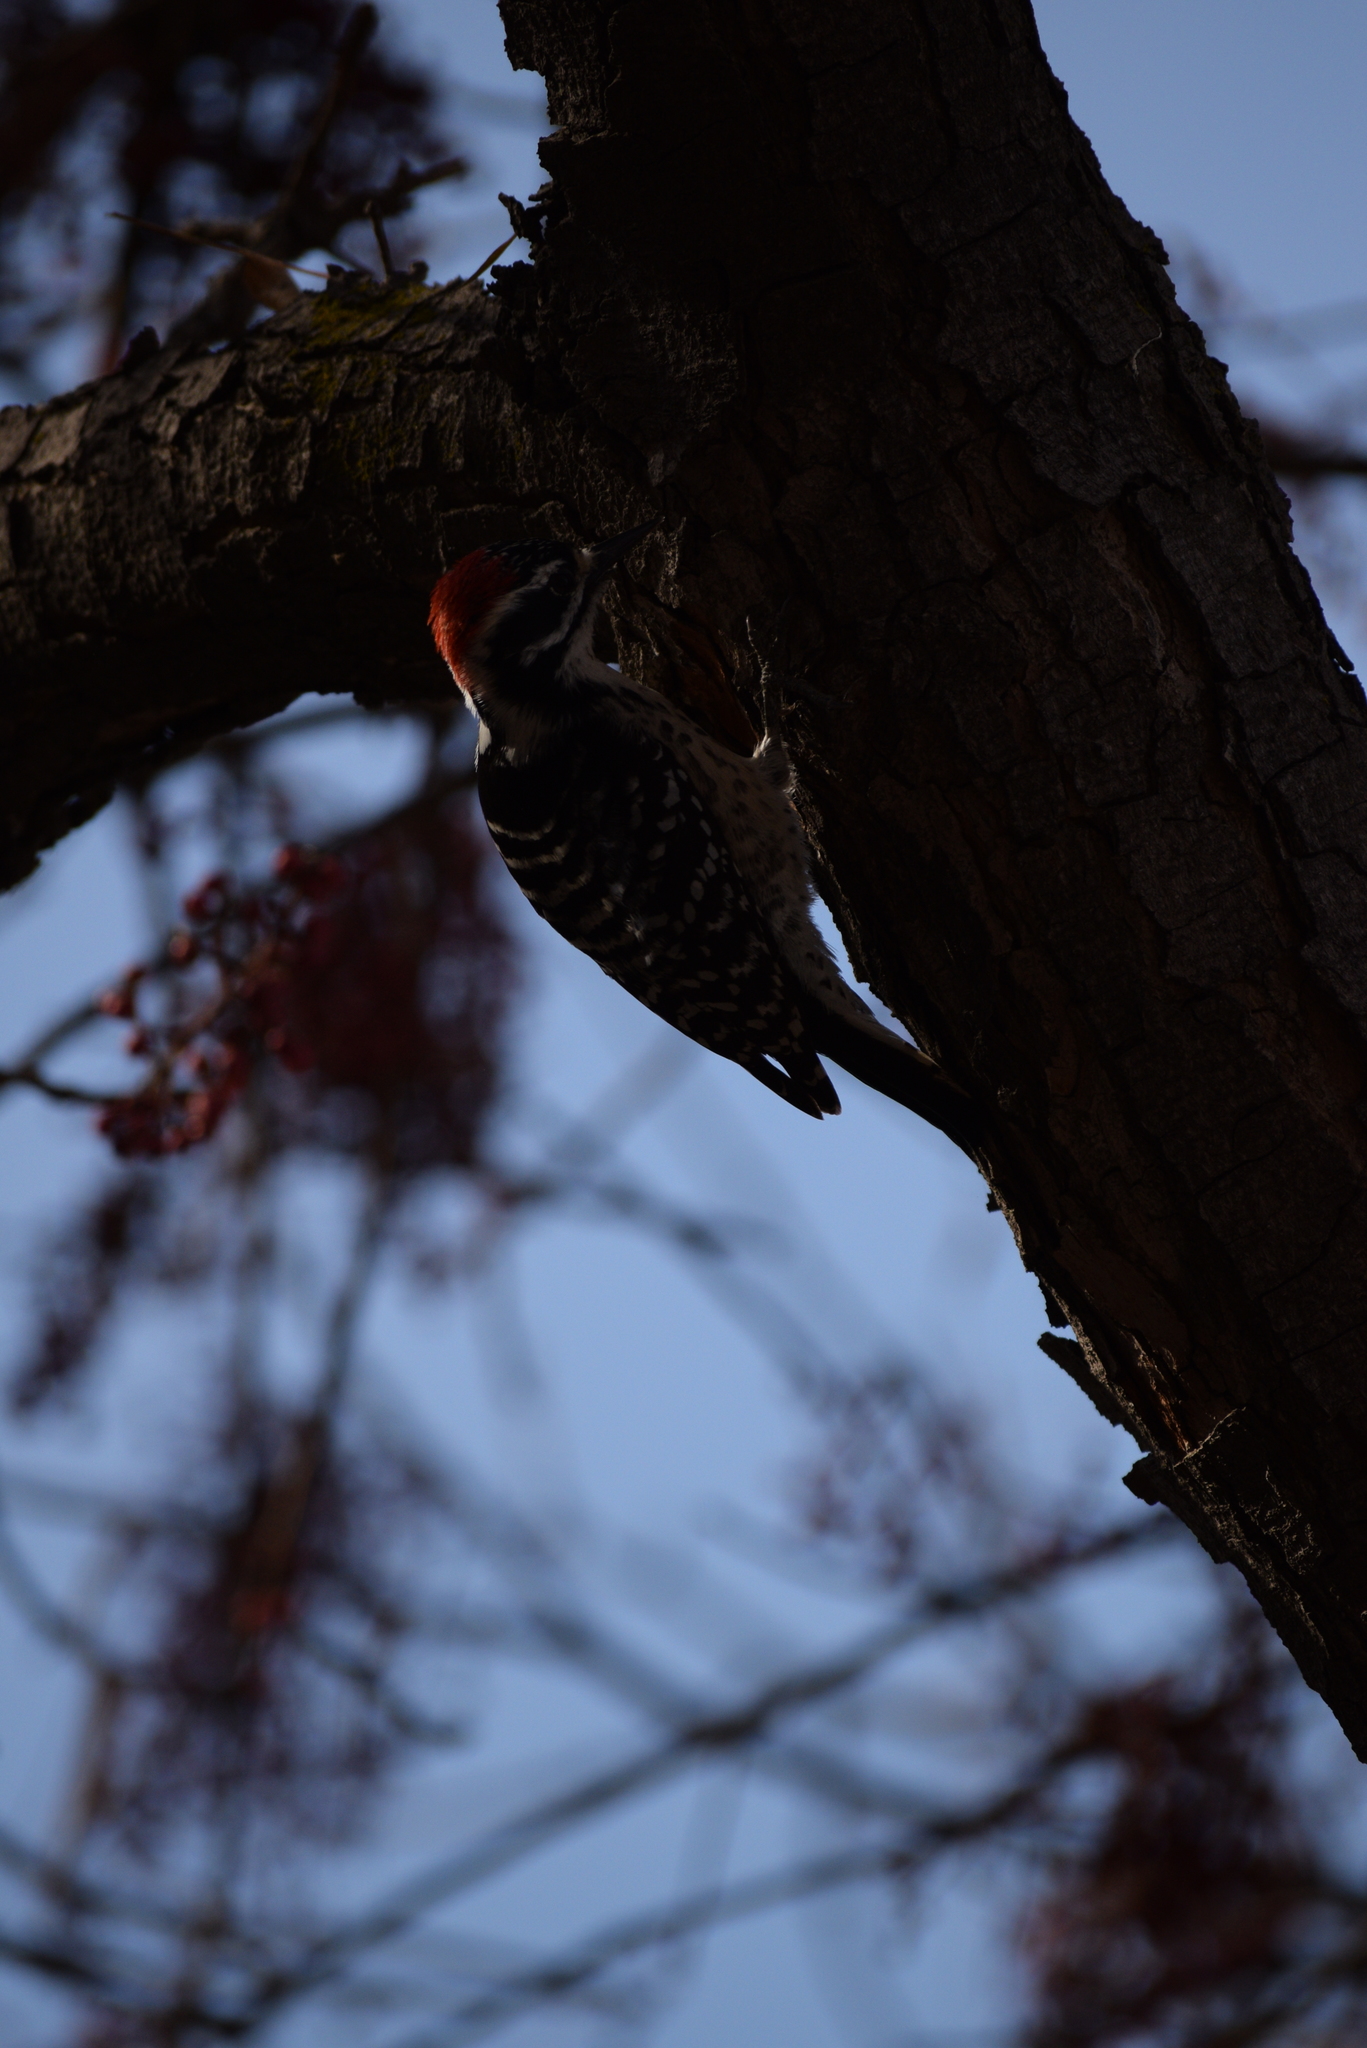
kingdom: Animalia
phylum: Chordata
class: Aves
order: Piciformes
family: Picidae
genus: Dryobates
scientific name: Dryobates nuttallii
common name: Nuttall's woodpecker
